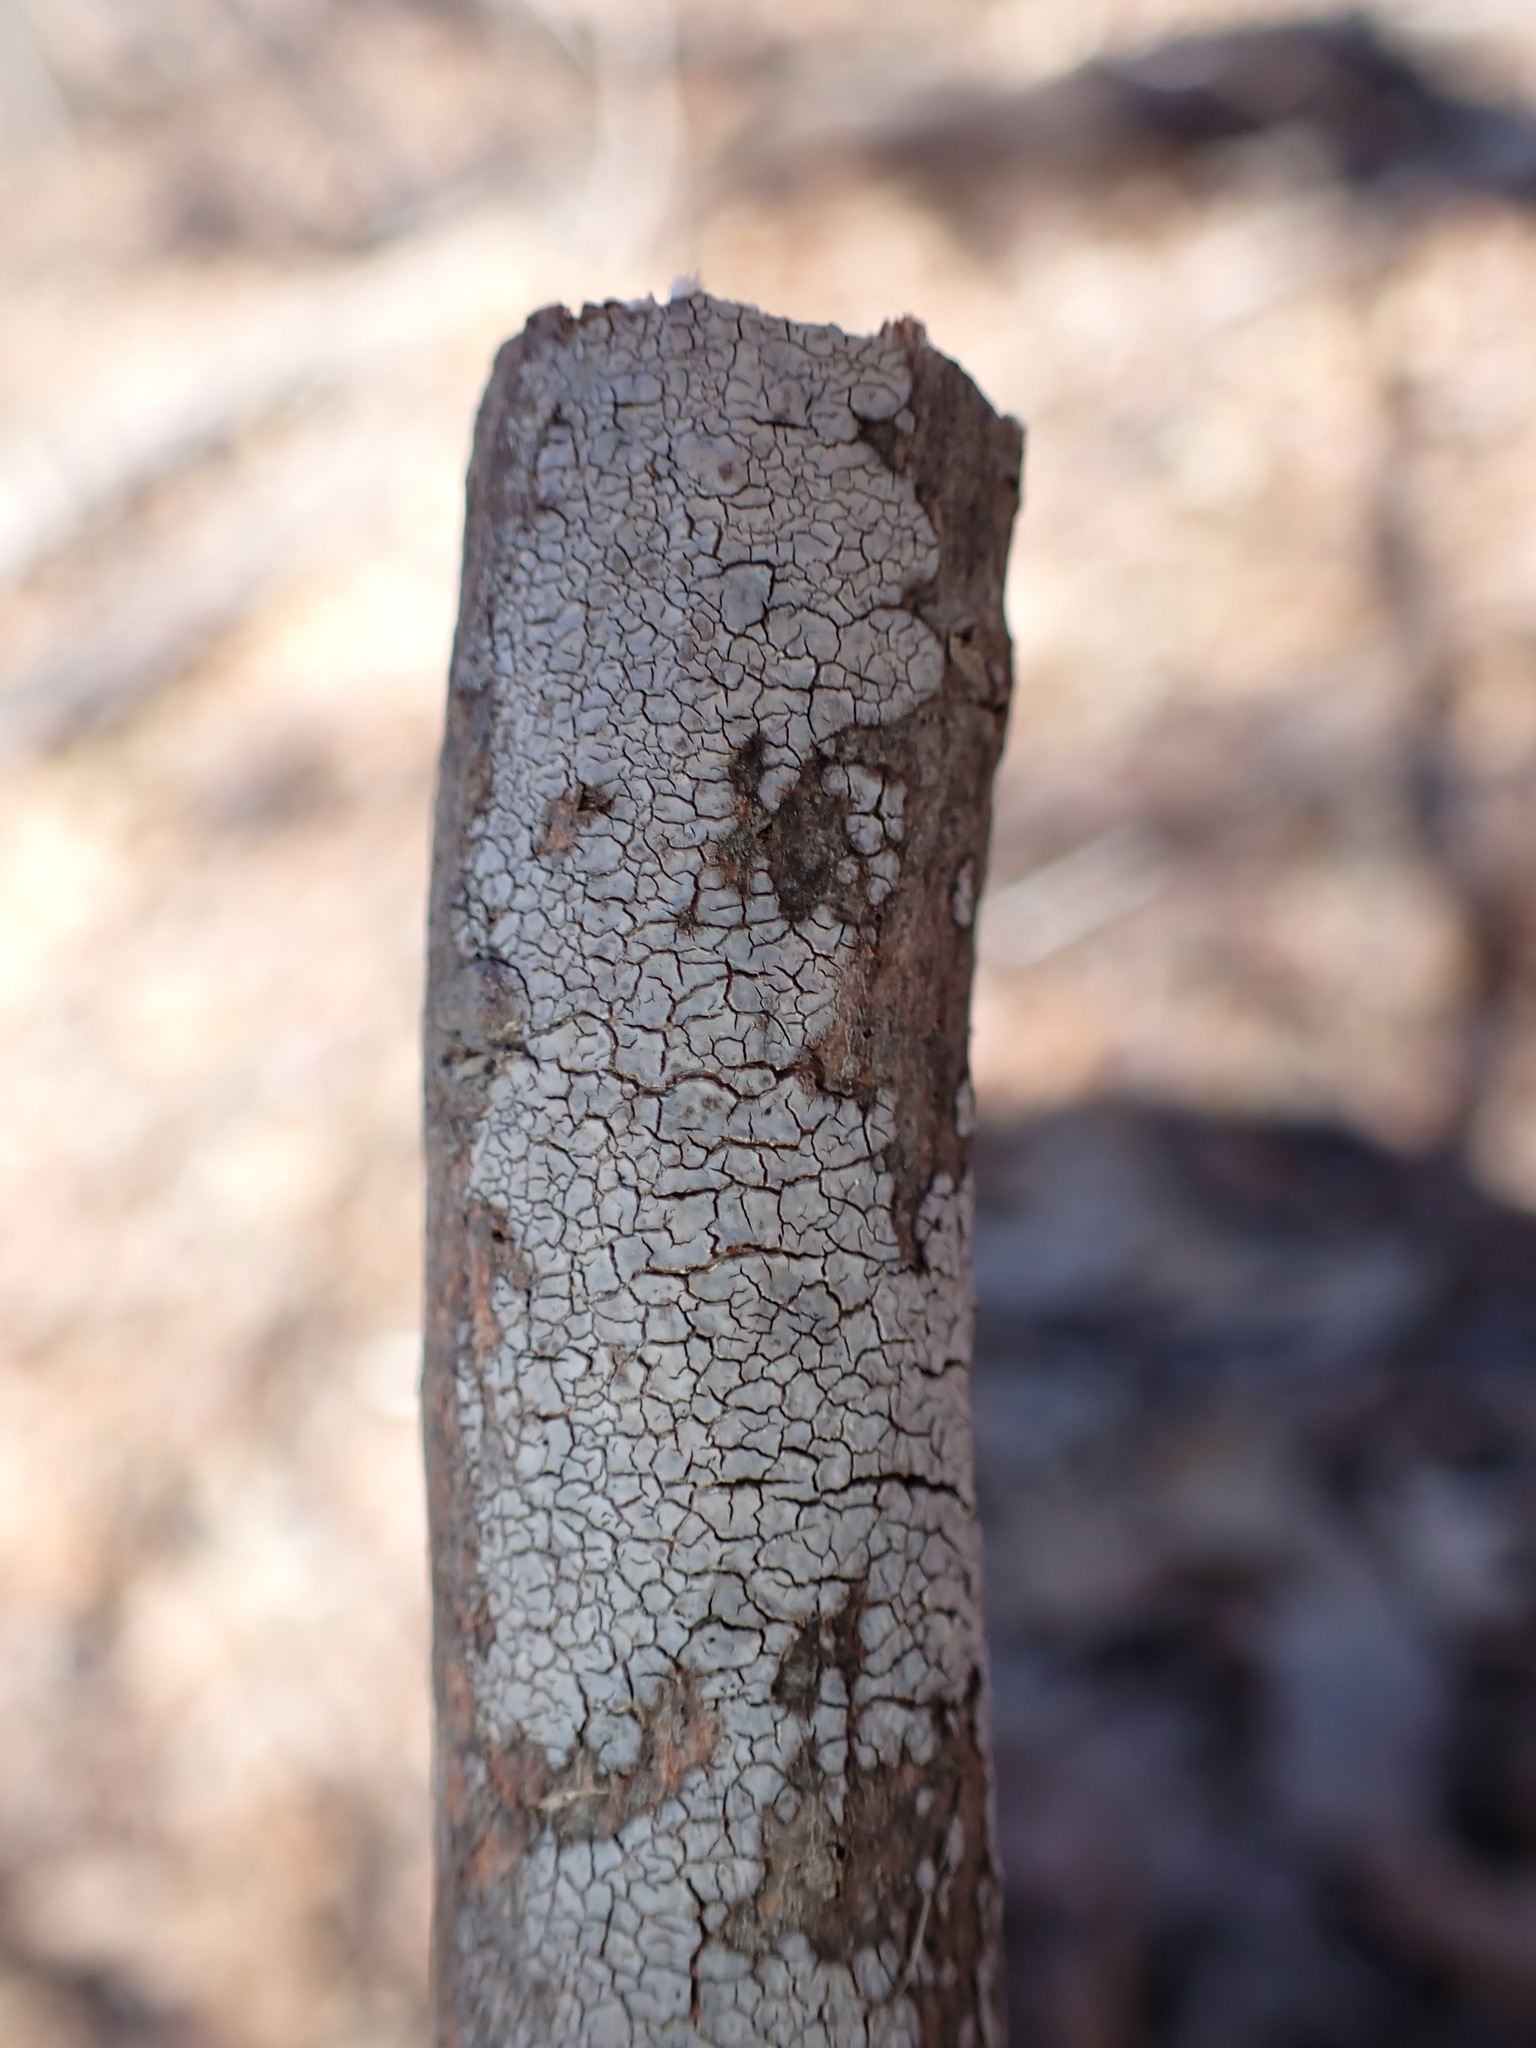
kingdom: Fungi
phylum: Basidiomycota
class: Agaricomycetes
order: Russulales
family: Peniophoraceae
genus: Peniophora
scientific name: Peniophora cinerea
